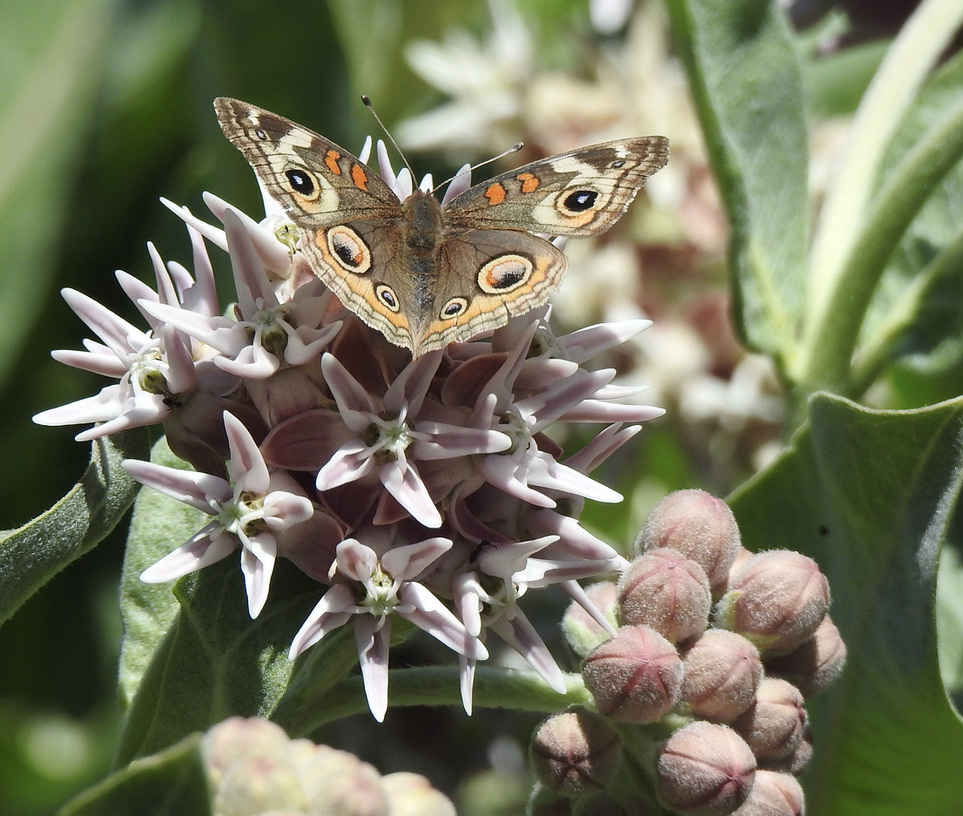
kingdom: Animalia
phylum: Arthropoda
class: Insecta
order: Lepidoptera
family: Nymphalidae
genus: Junonia
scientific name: Junonia grisea
